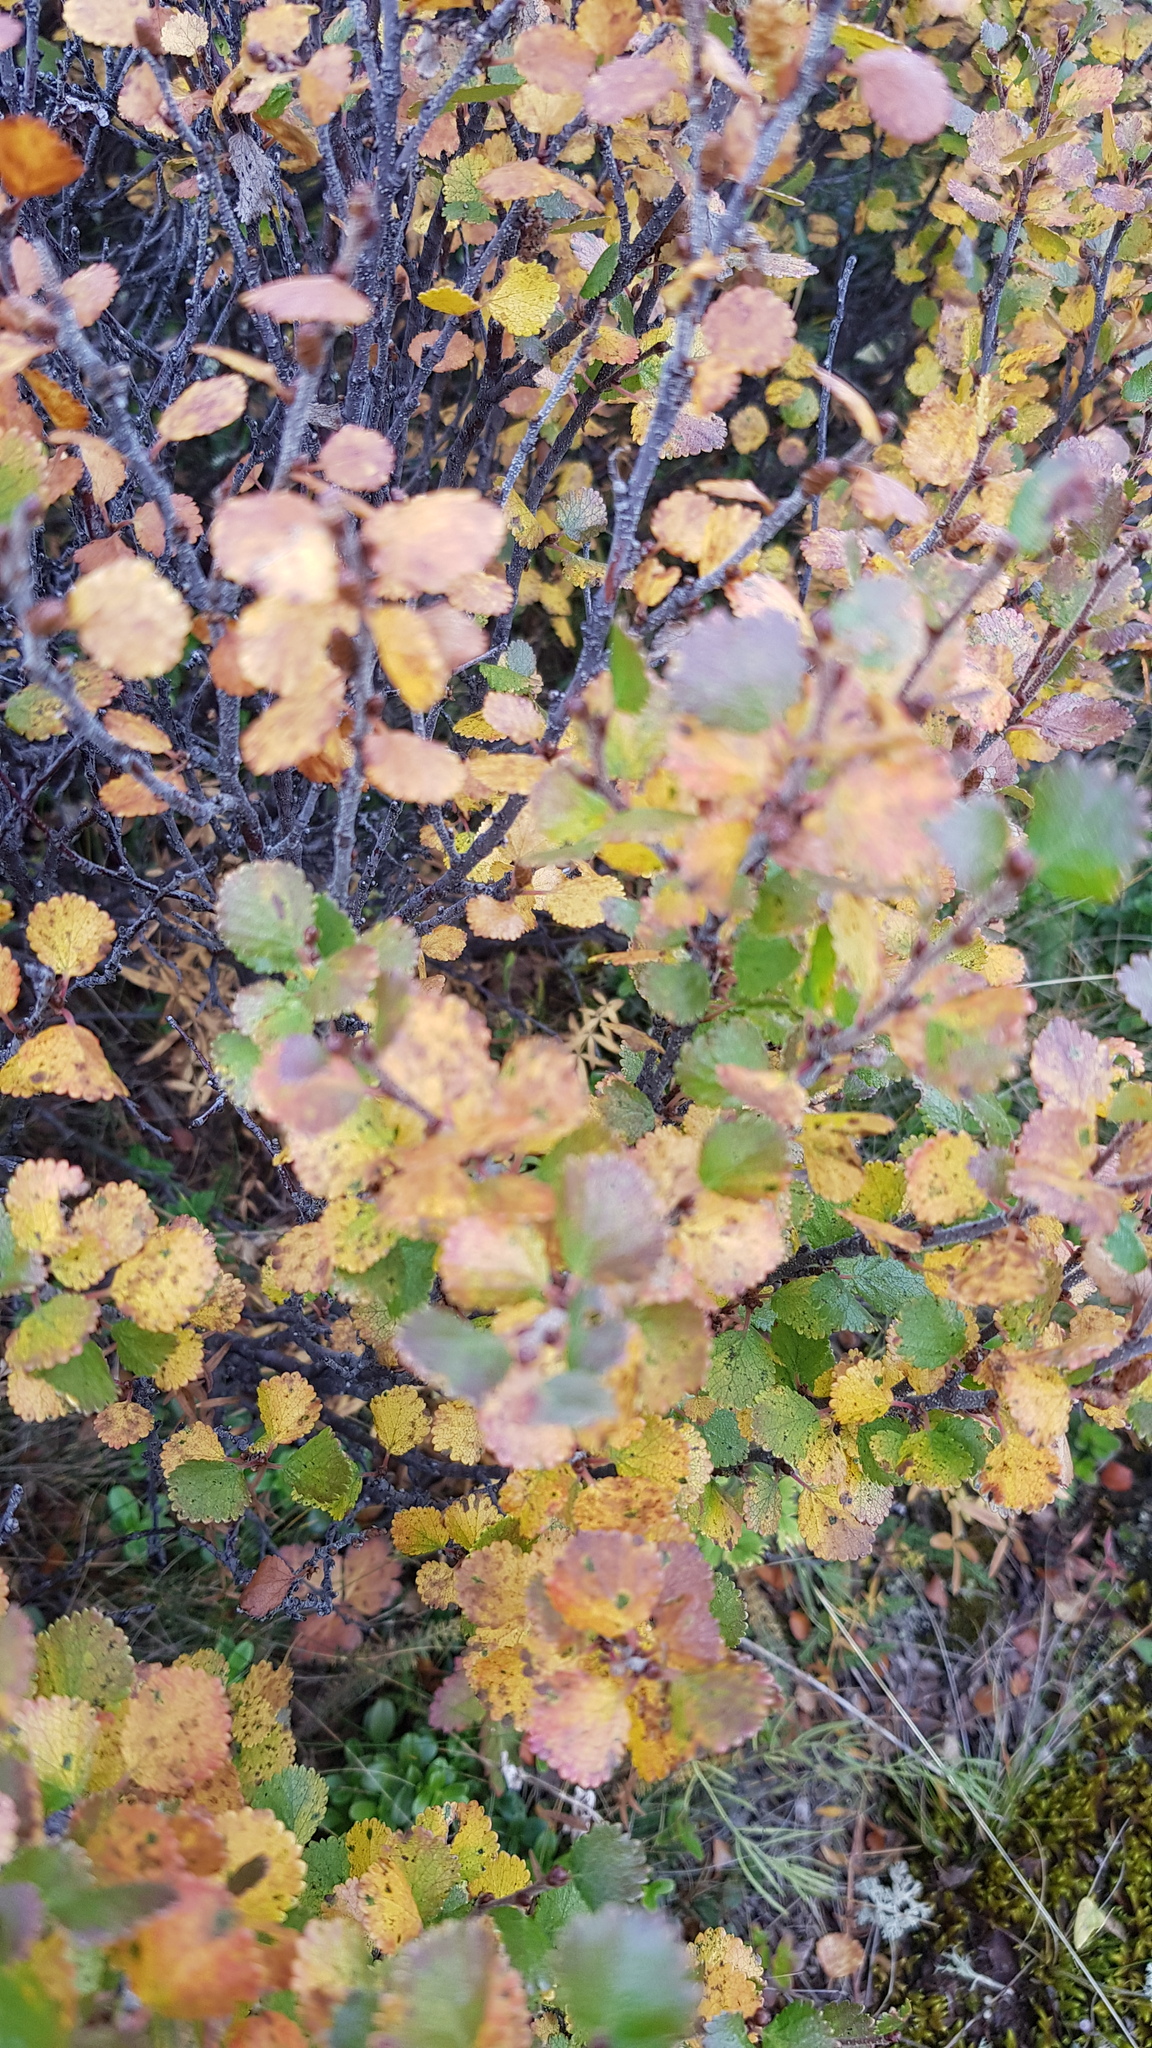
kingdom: Plantae
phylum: Tracheophyta
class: Magnoliopsida
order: Fagales
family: Betulaceae
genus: Betula
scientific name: Betula glandulosa
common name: Dwarf birch
